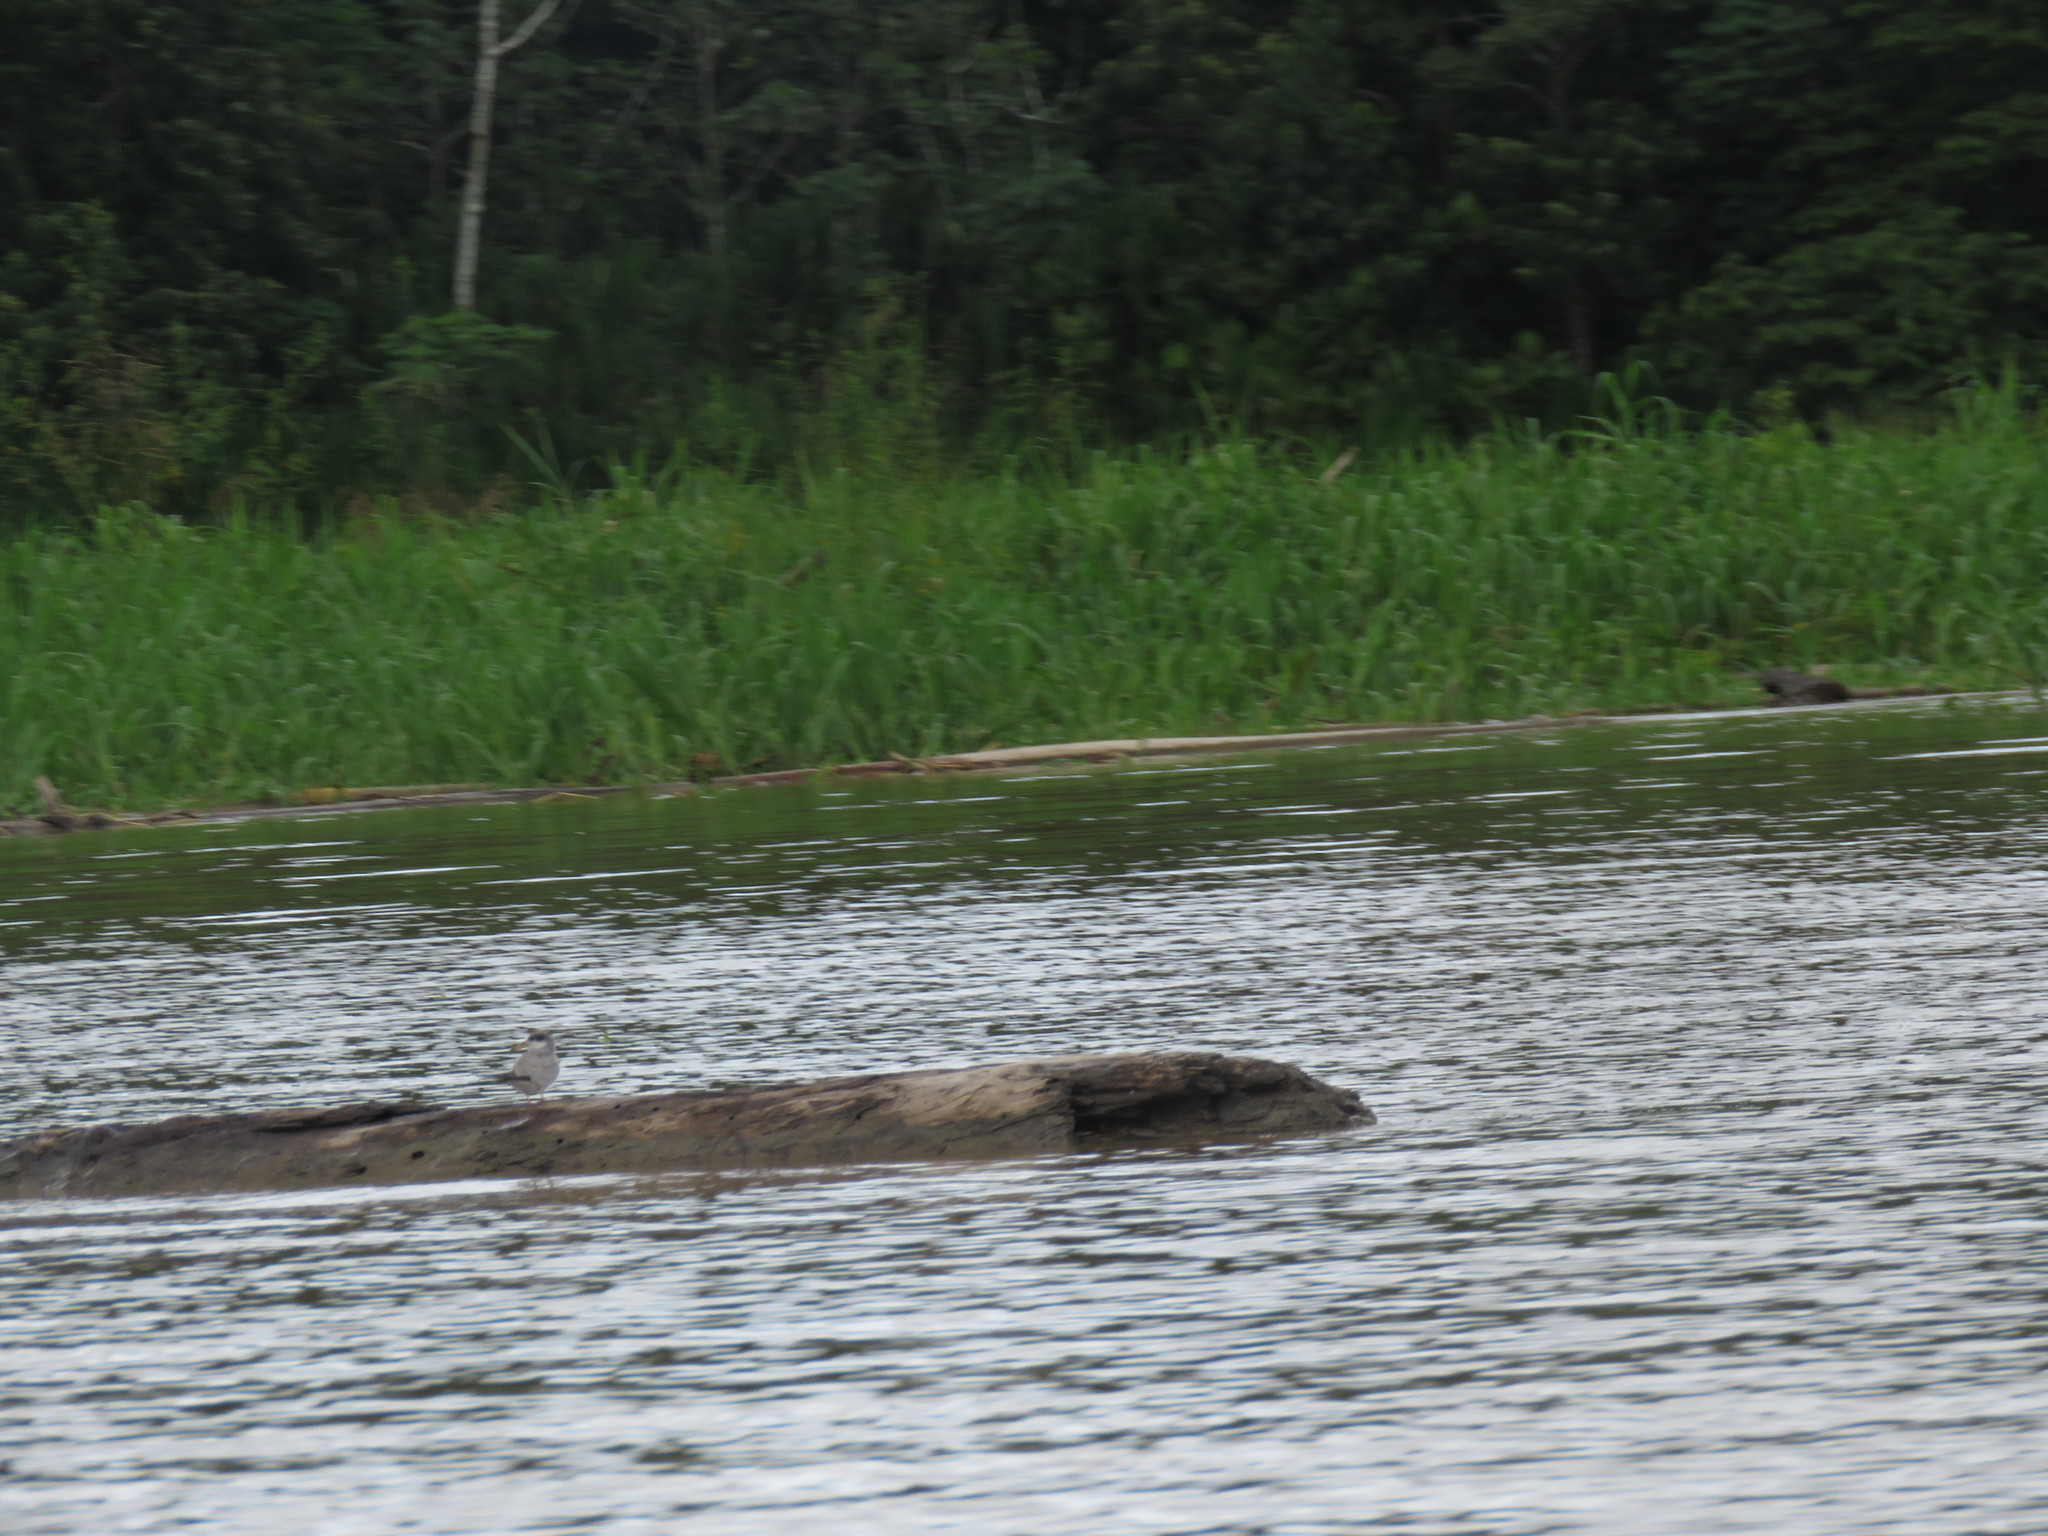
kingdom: Animalia
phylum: Chordata
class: Aves
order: Charadriiformes
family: Laridae
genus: Sternula
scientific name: Sternula superciliaris
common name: Yellow-billed tern
